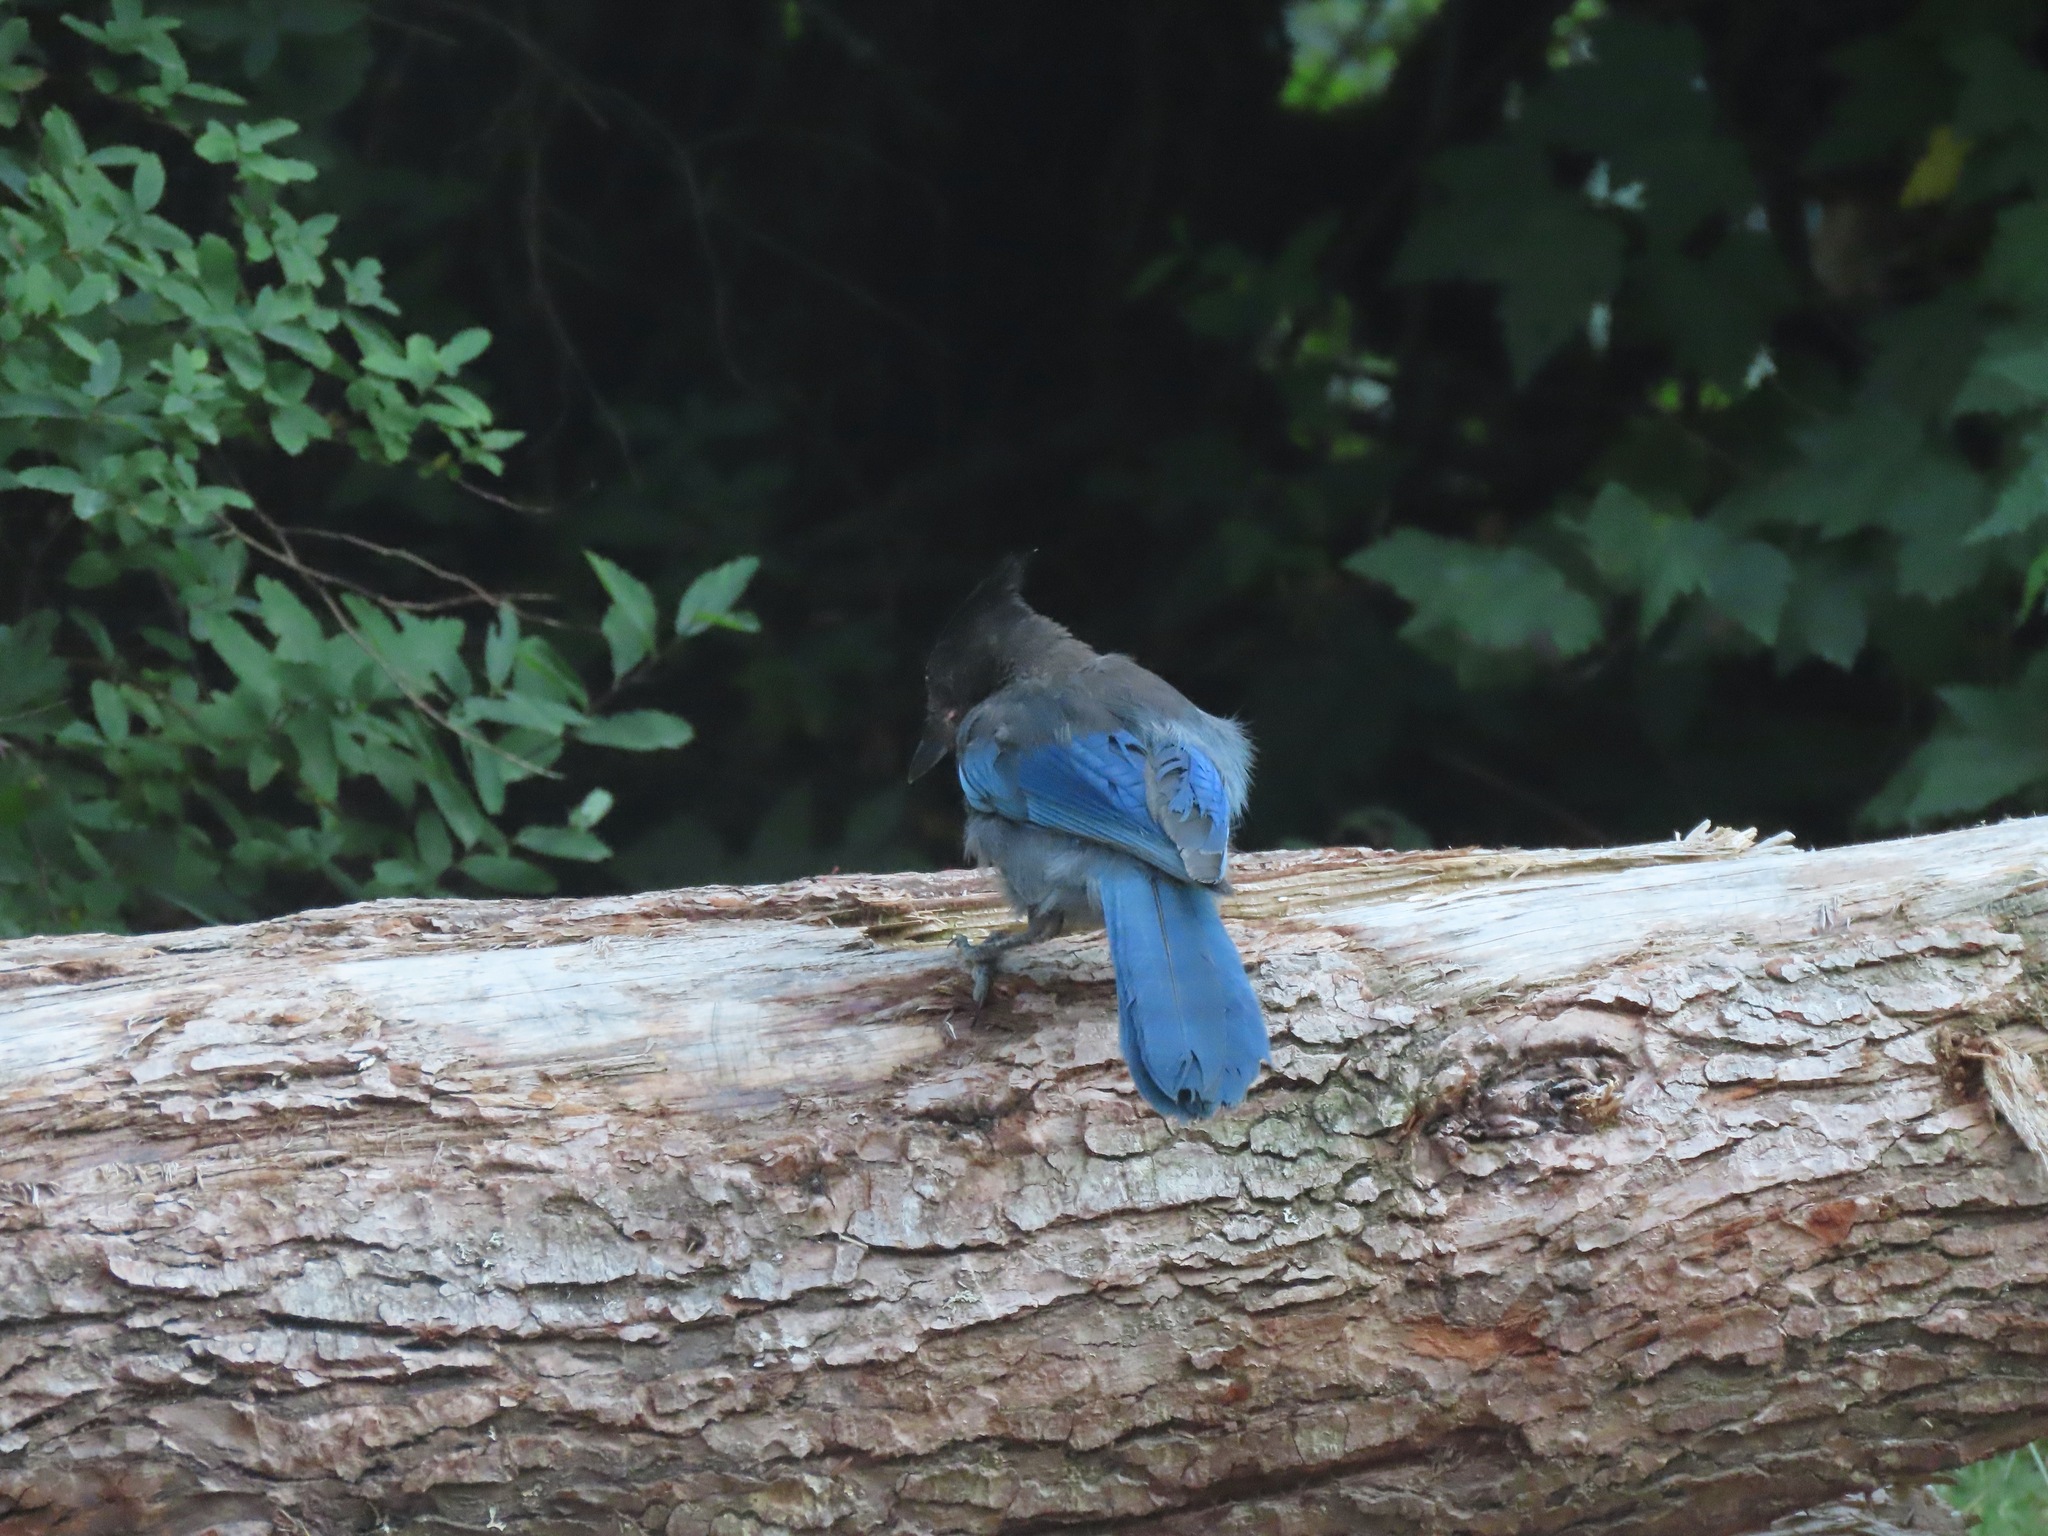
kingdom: Animalia
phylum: Chordata
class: Aves
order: Passeriformes
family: Corvidae
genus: Cyanocitta
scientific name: Cyanocitta stelleri
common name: Steller's jay
